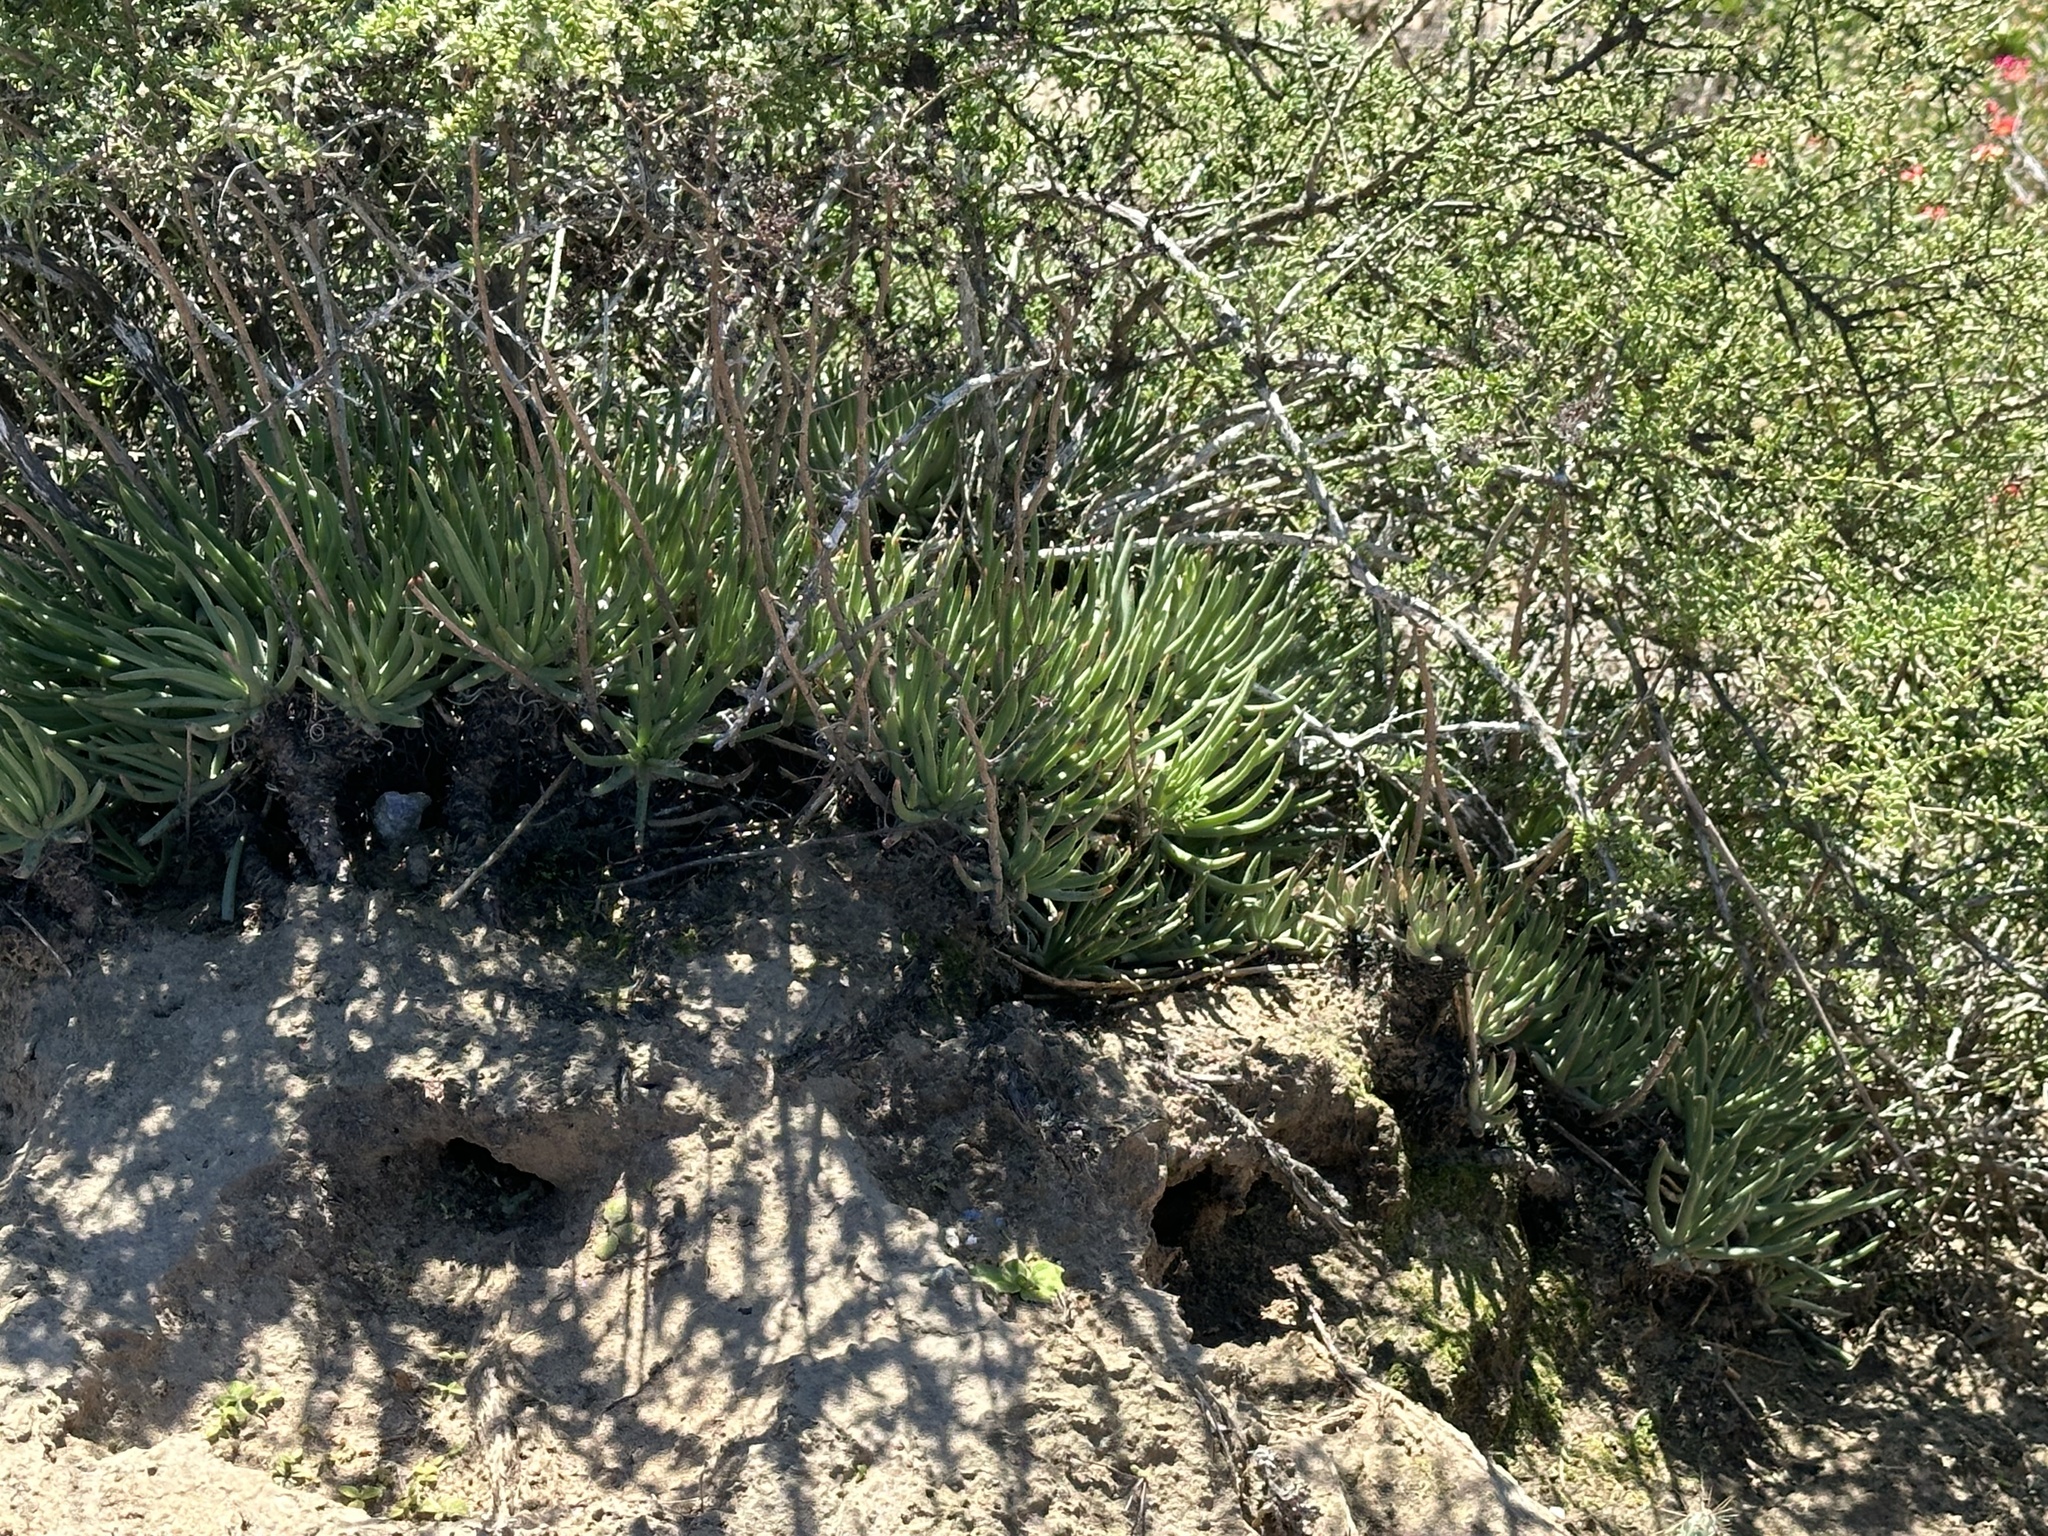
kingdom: Plantae
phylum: Tracheophyta
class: Magnoliopsida
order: Saxifragales
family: Crassulaceae
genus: Dudleya
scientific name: Dudleya edulis
